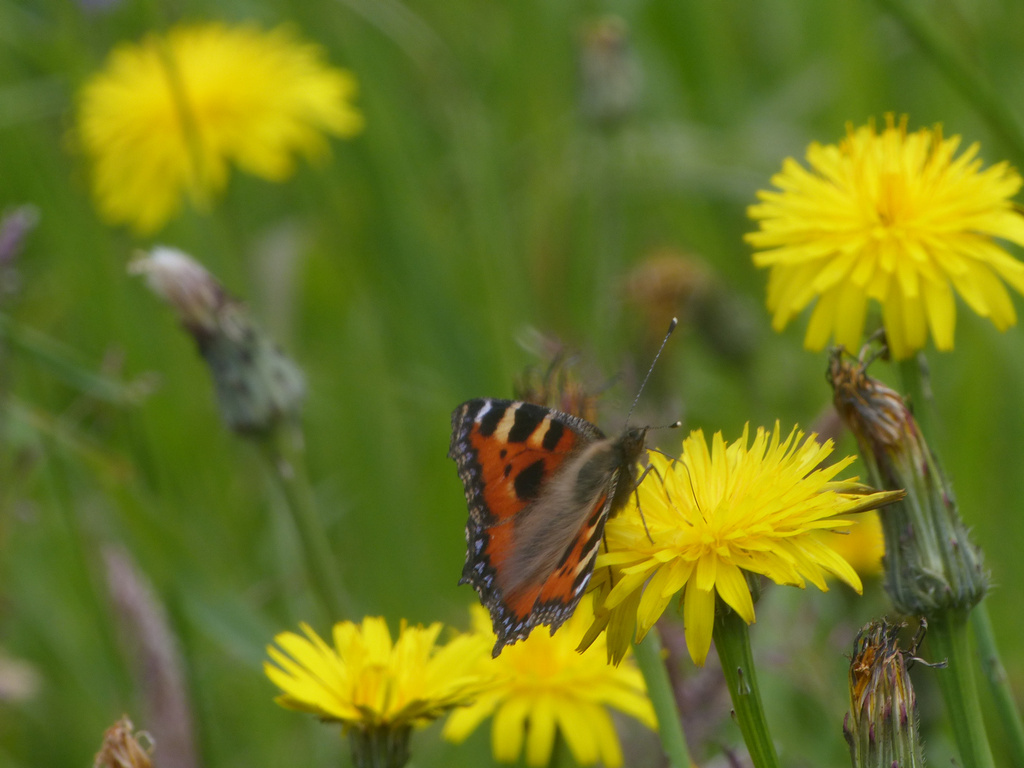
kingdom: Animalia
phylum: Arthropoda
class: Insecta
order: Lepidoptera
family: Nymphalidae
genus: Aglais
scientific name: Aglais urticae
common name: Small tortoiseshell
